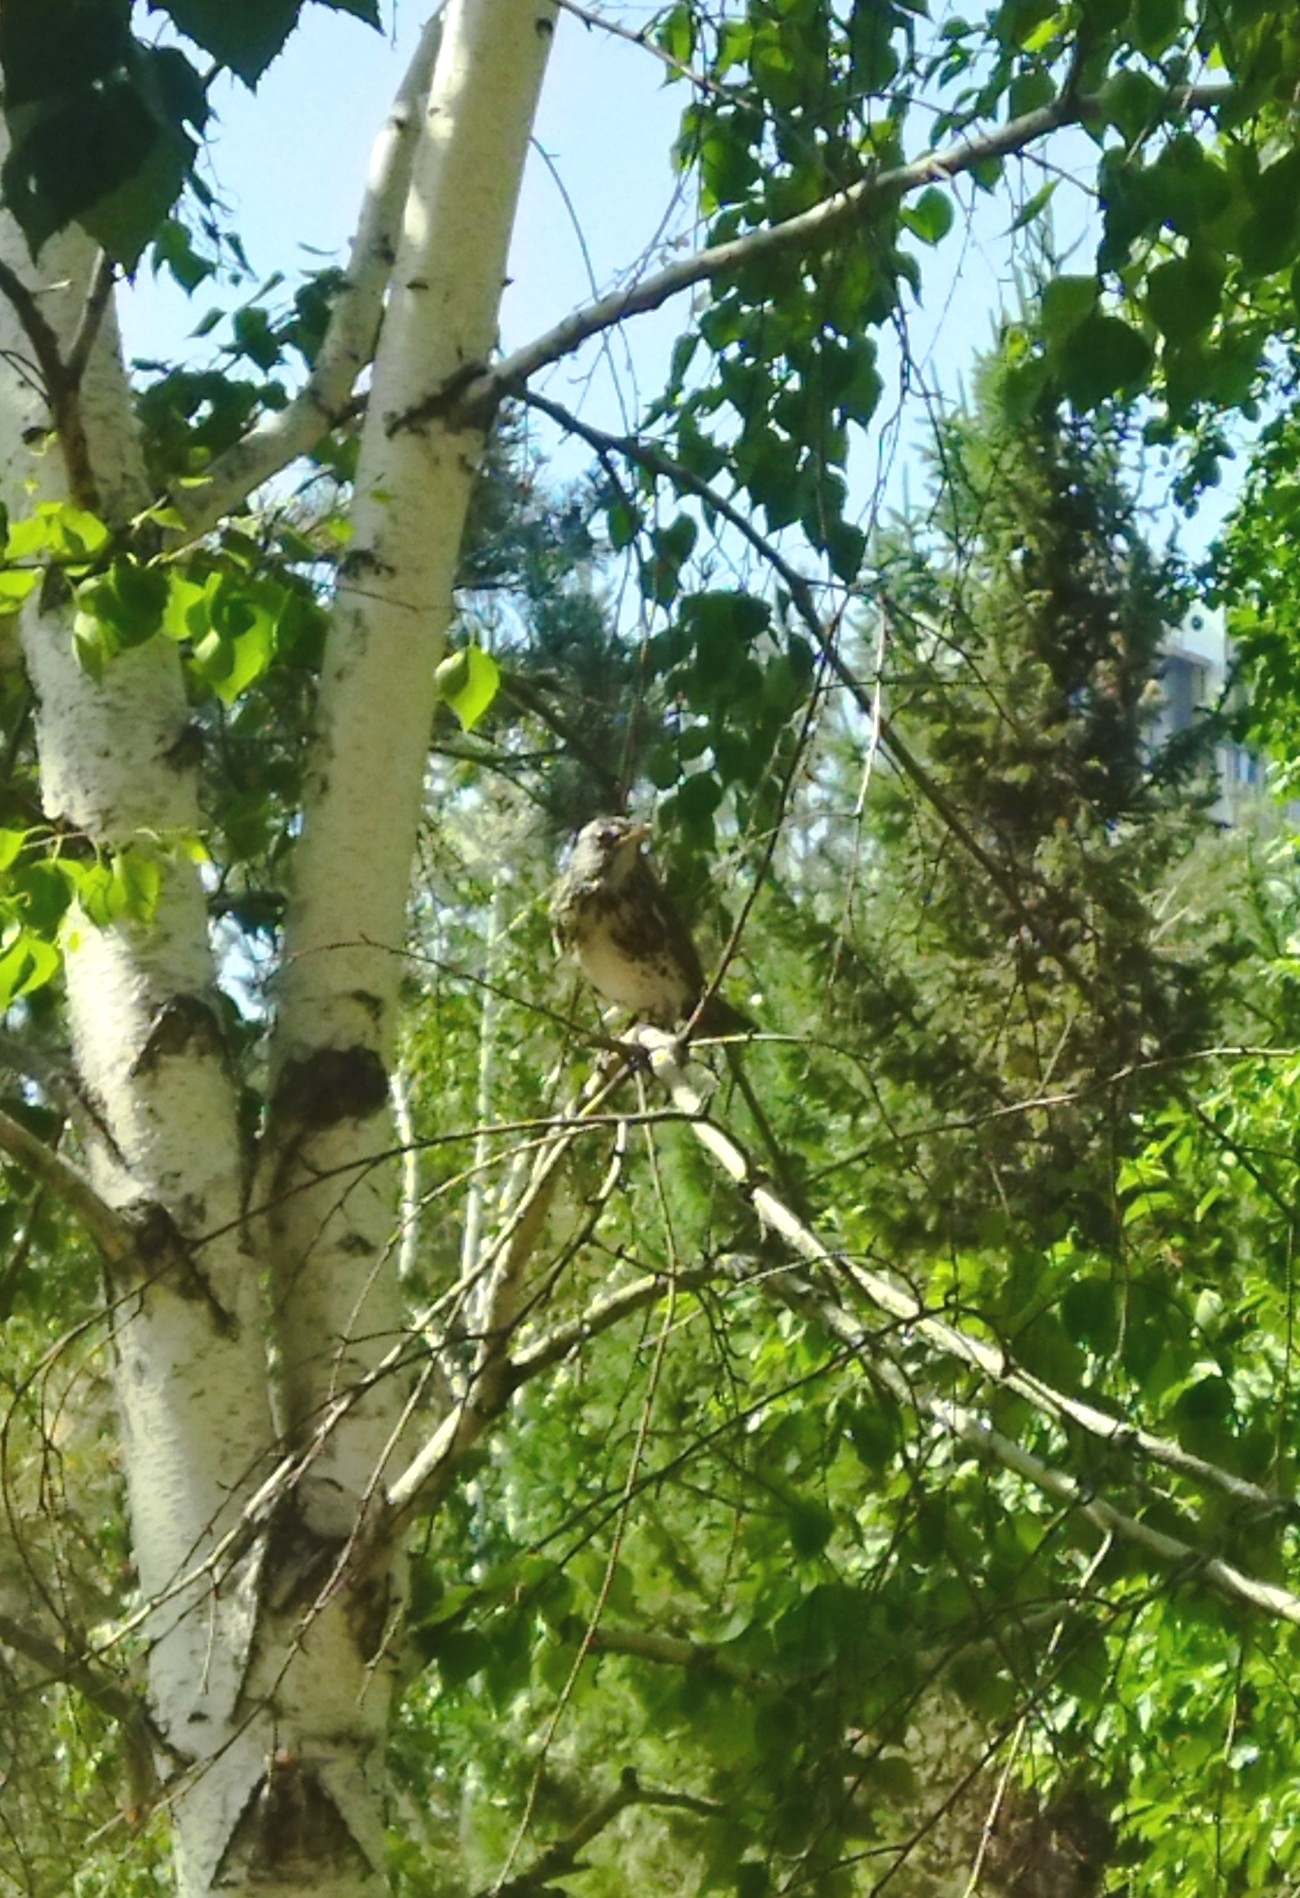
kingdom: Animalia
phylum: Chordata
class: Aves
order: Passeriformes
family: Turdidae
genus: Turdus
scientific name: Turdus pilaris
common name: Fieldfare
